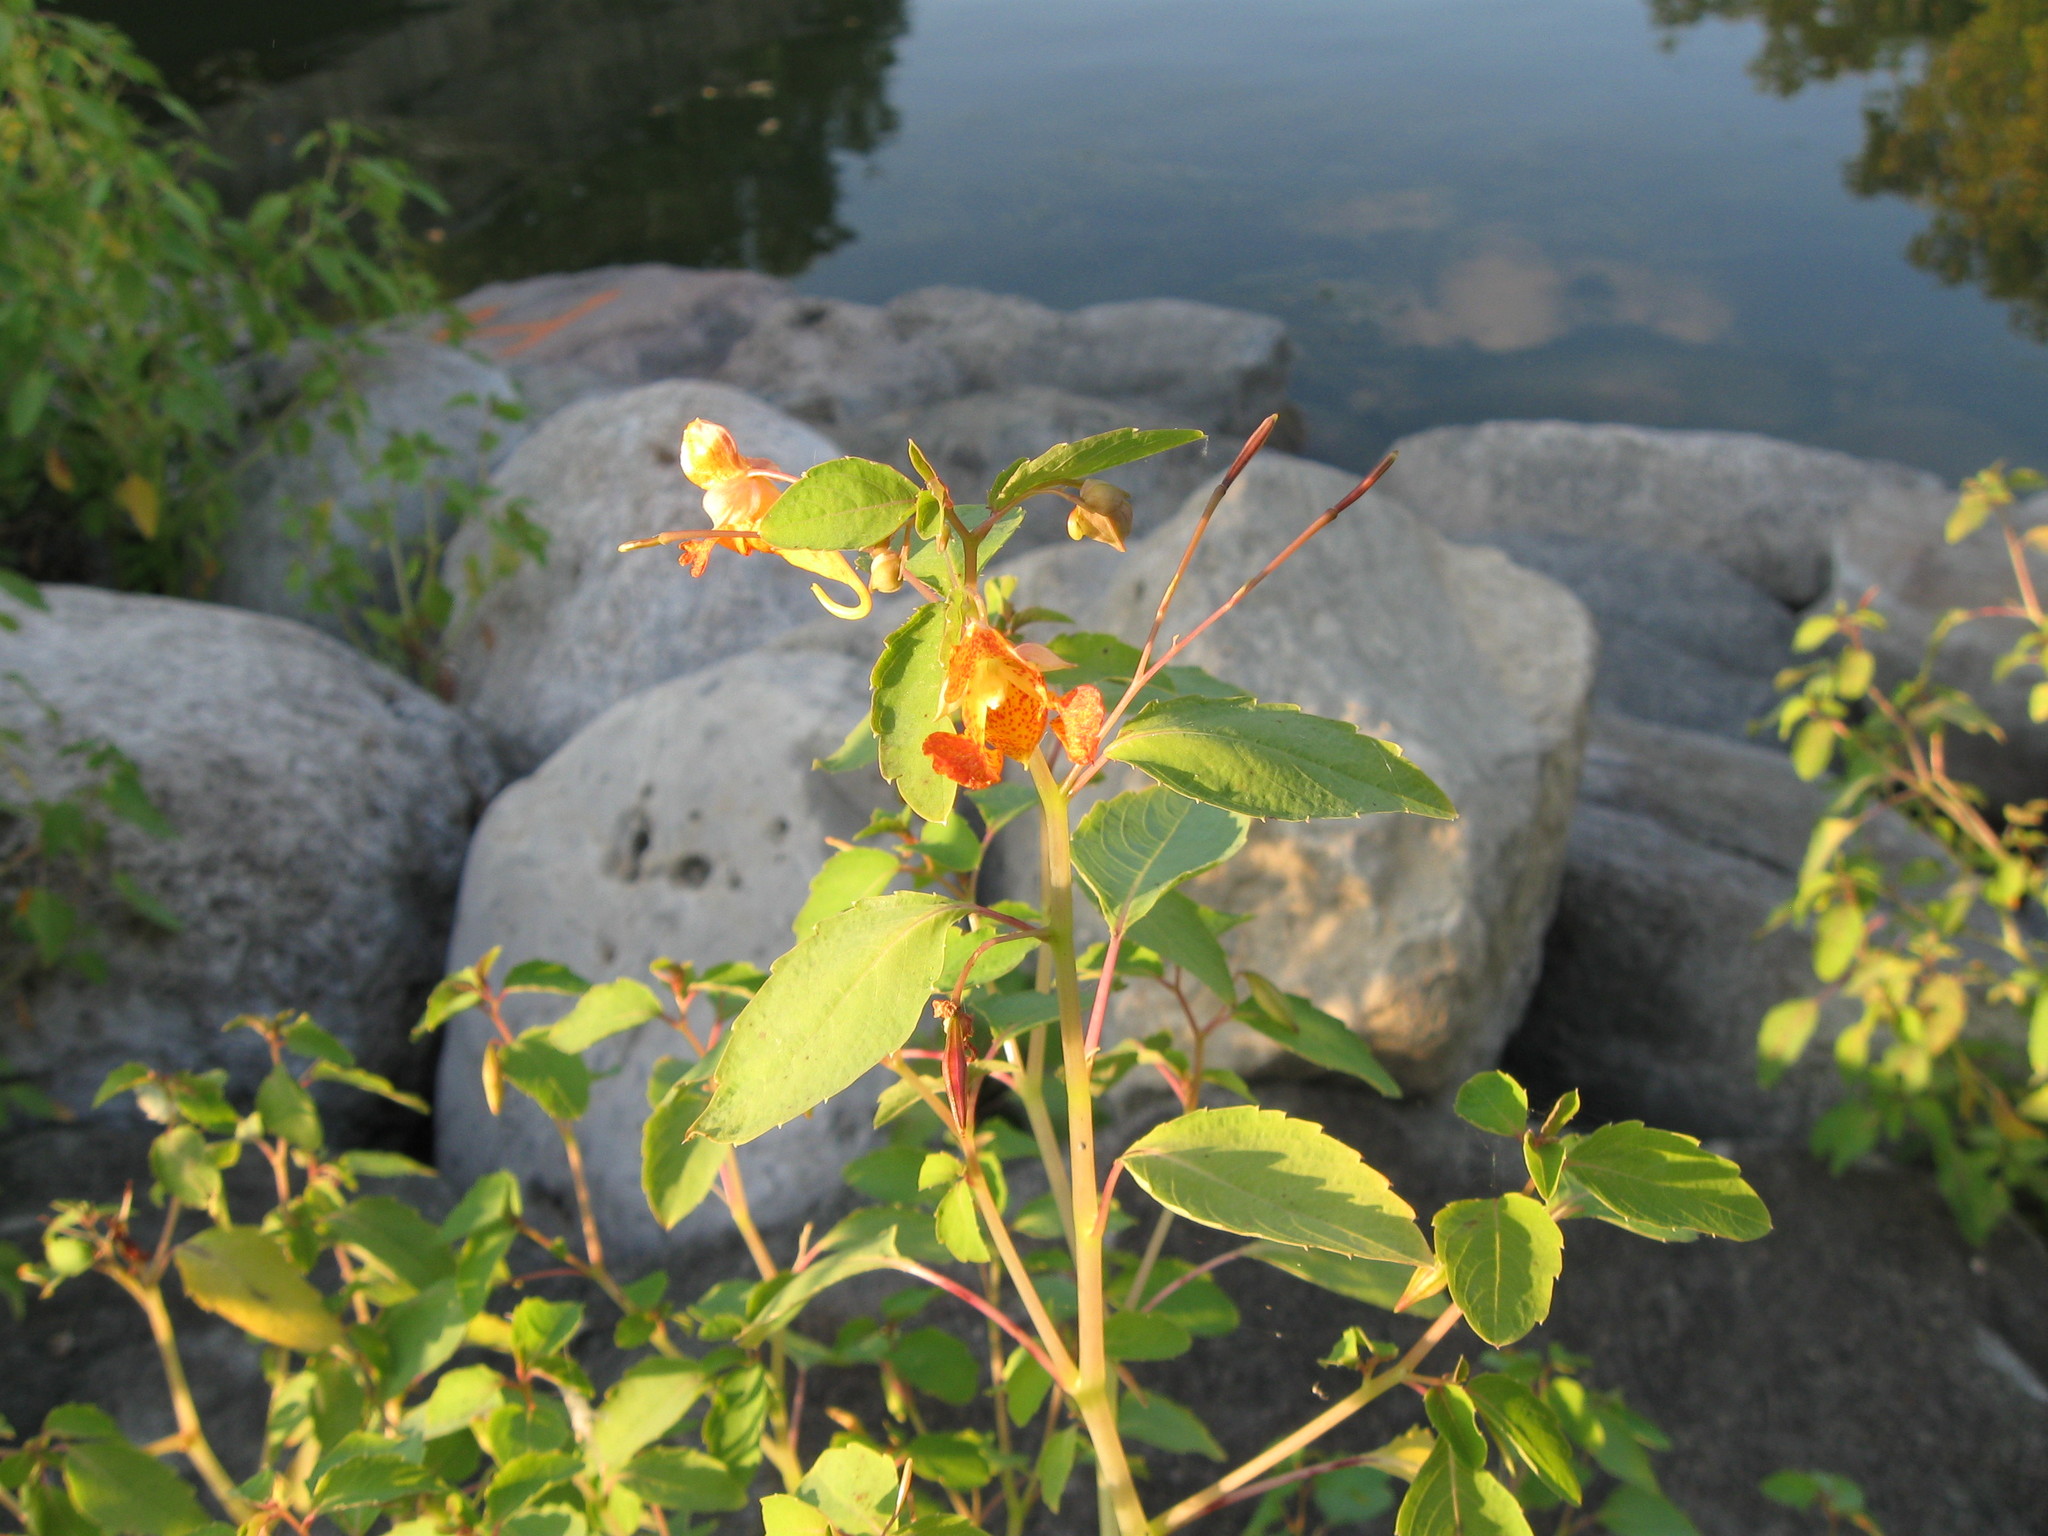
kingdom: Plantae
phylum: Tracheophyta
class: Magnoliopsida
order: Ericales
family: Balsaminaceae
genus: Impatiens
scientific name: Impatiens capensis
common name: Orange balsam
